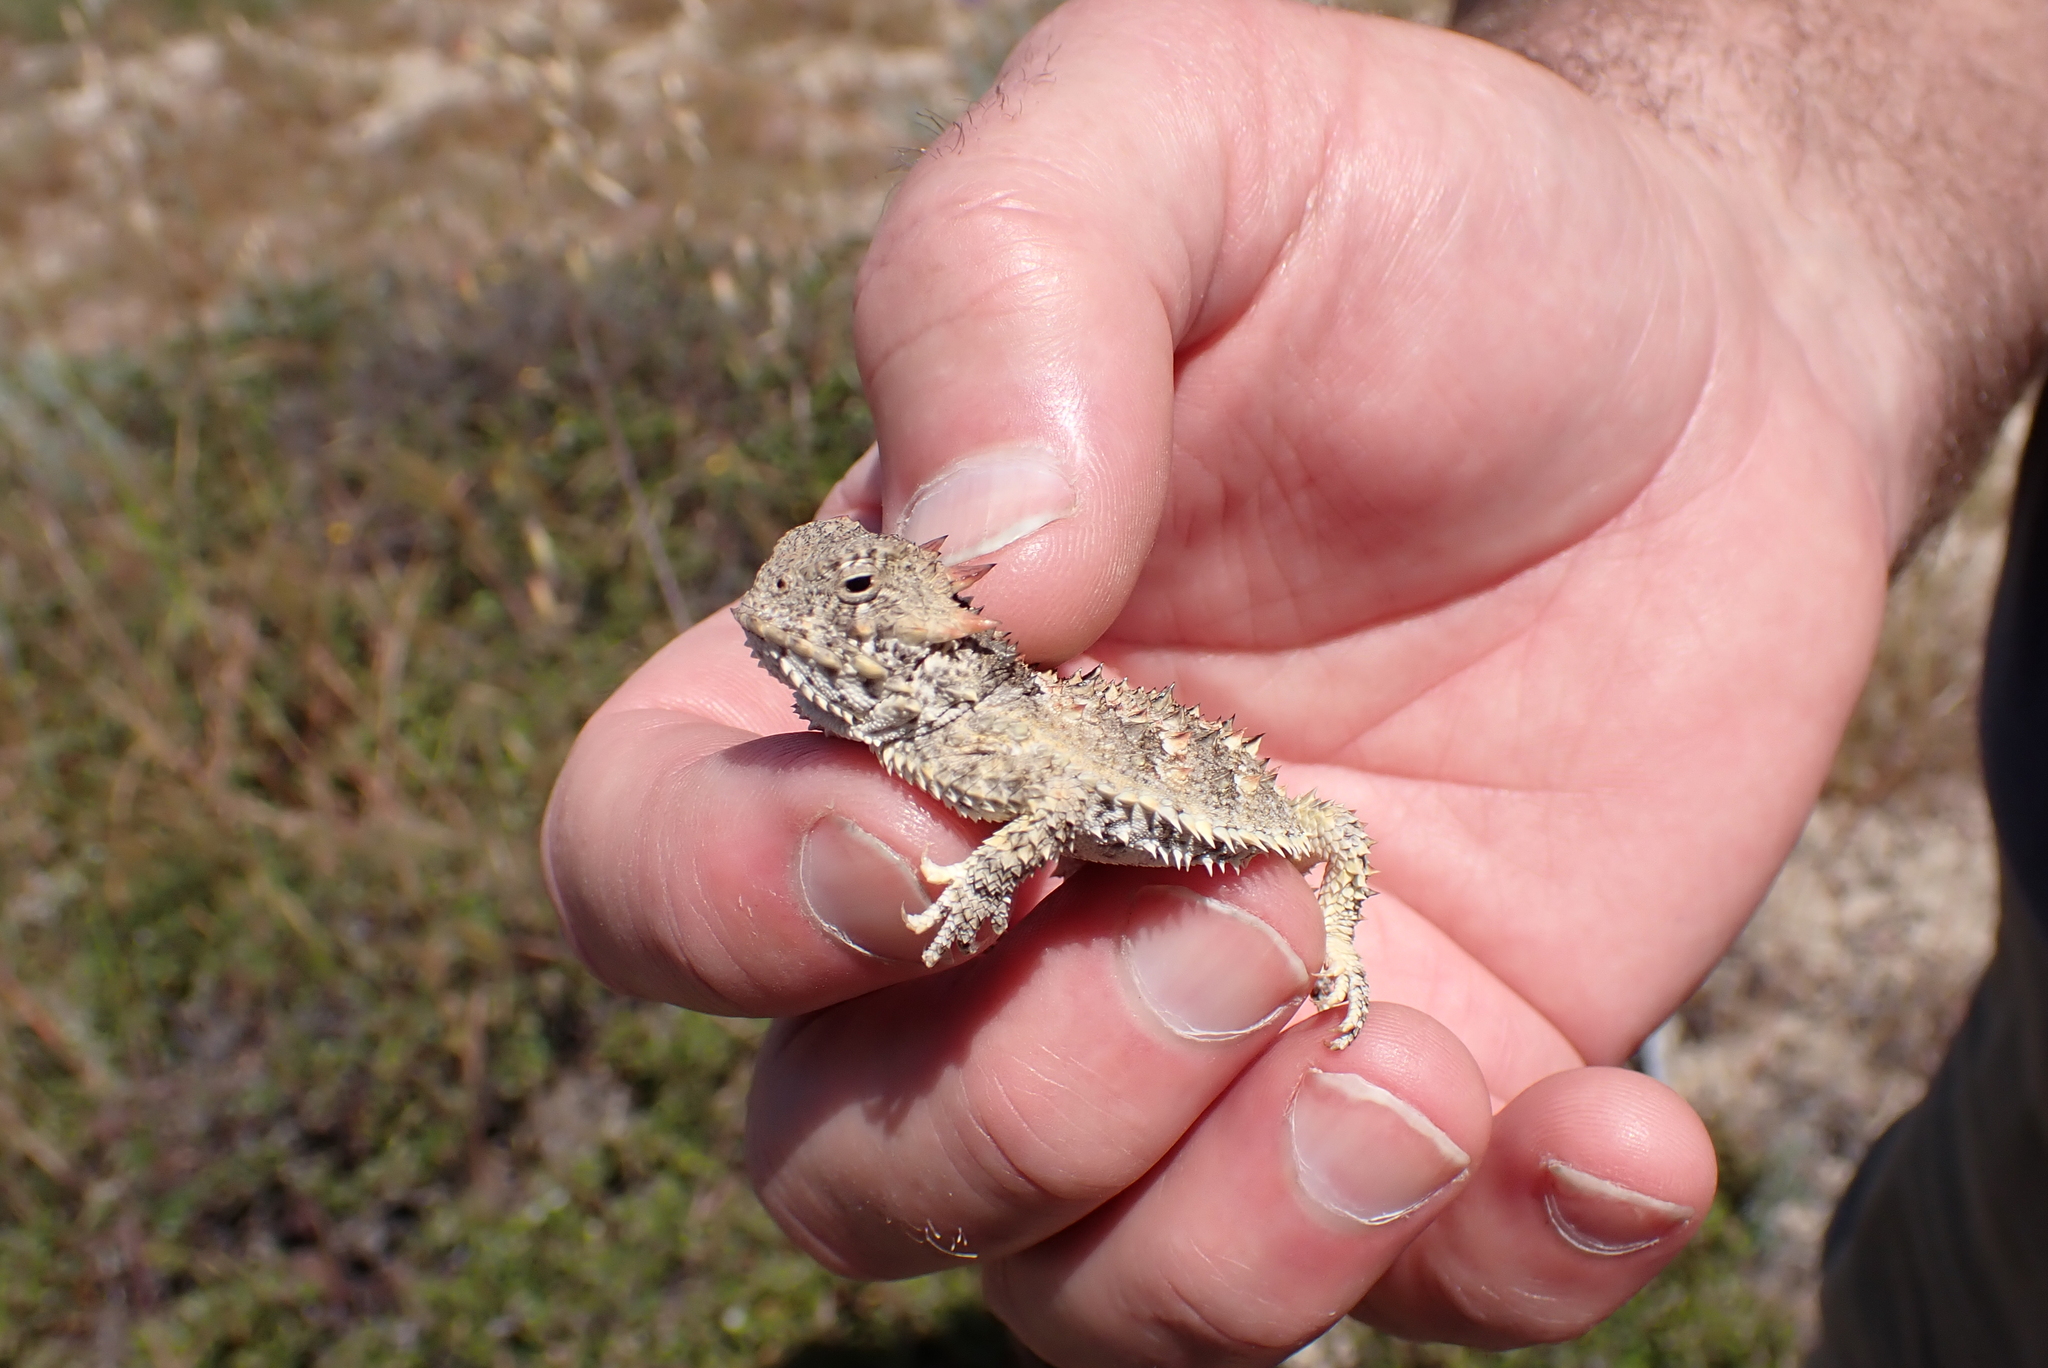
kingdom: Animalia
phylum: Chordata
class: Squamata
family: Phrynosomatidae
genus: Phrynosoma
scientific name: Phrynosoma blainvillii
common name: San diego horned lizard
